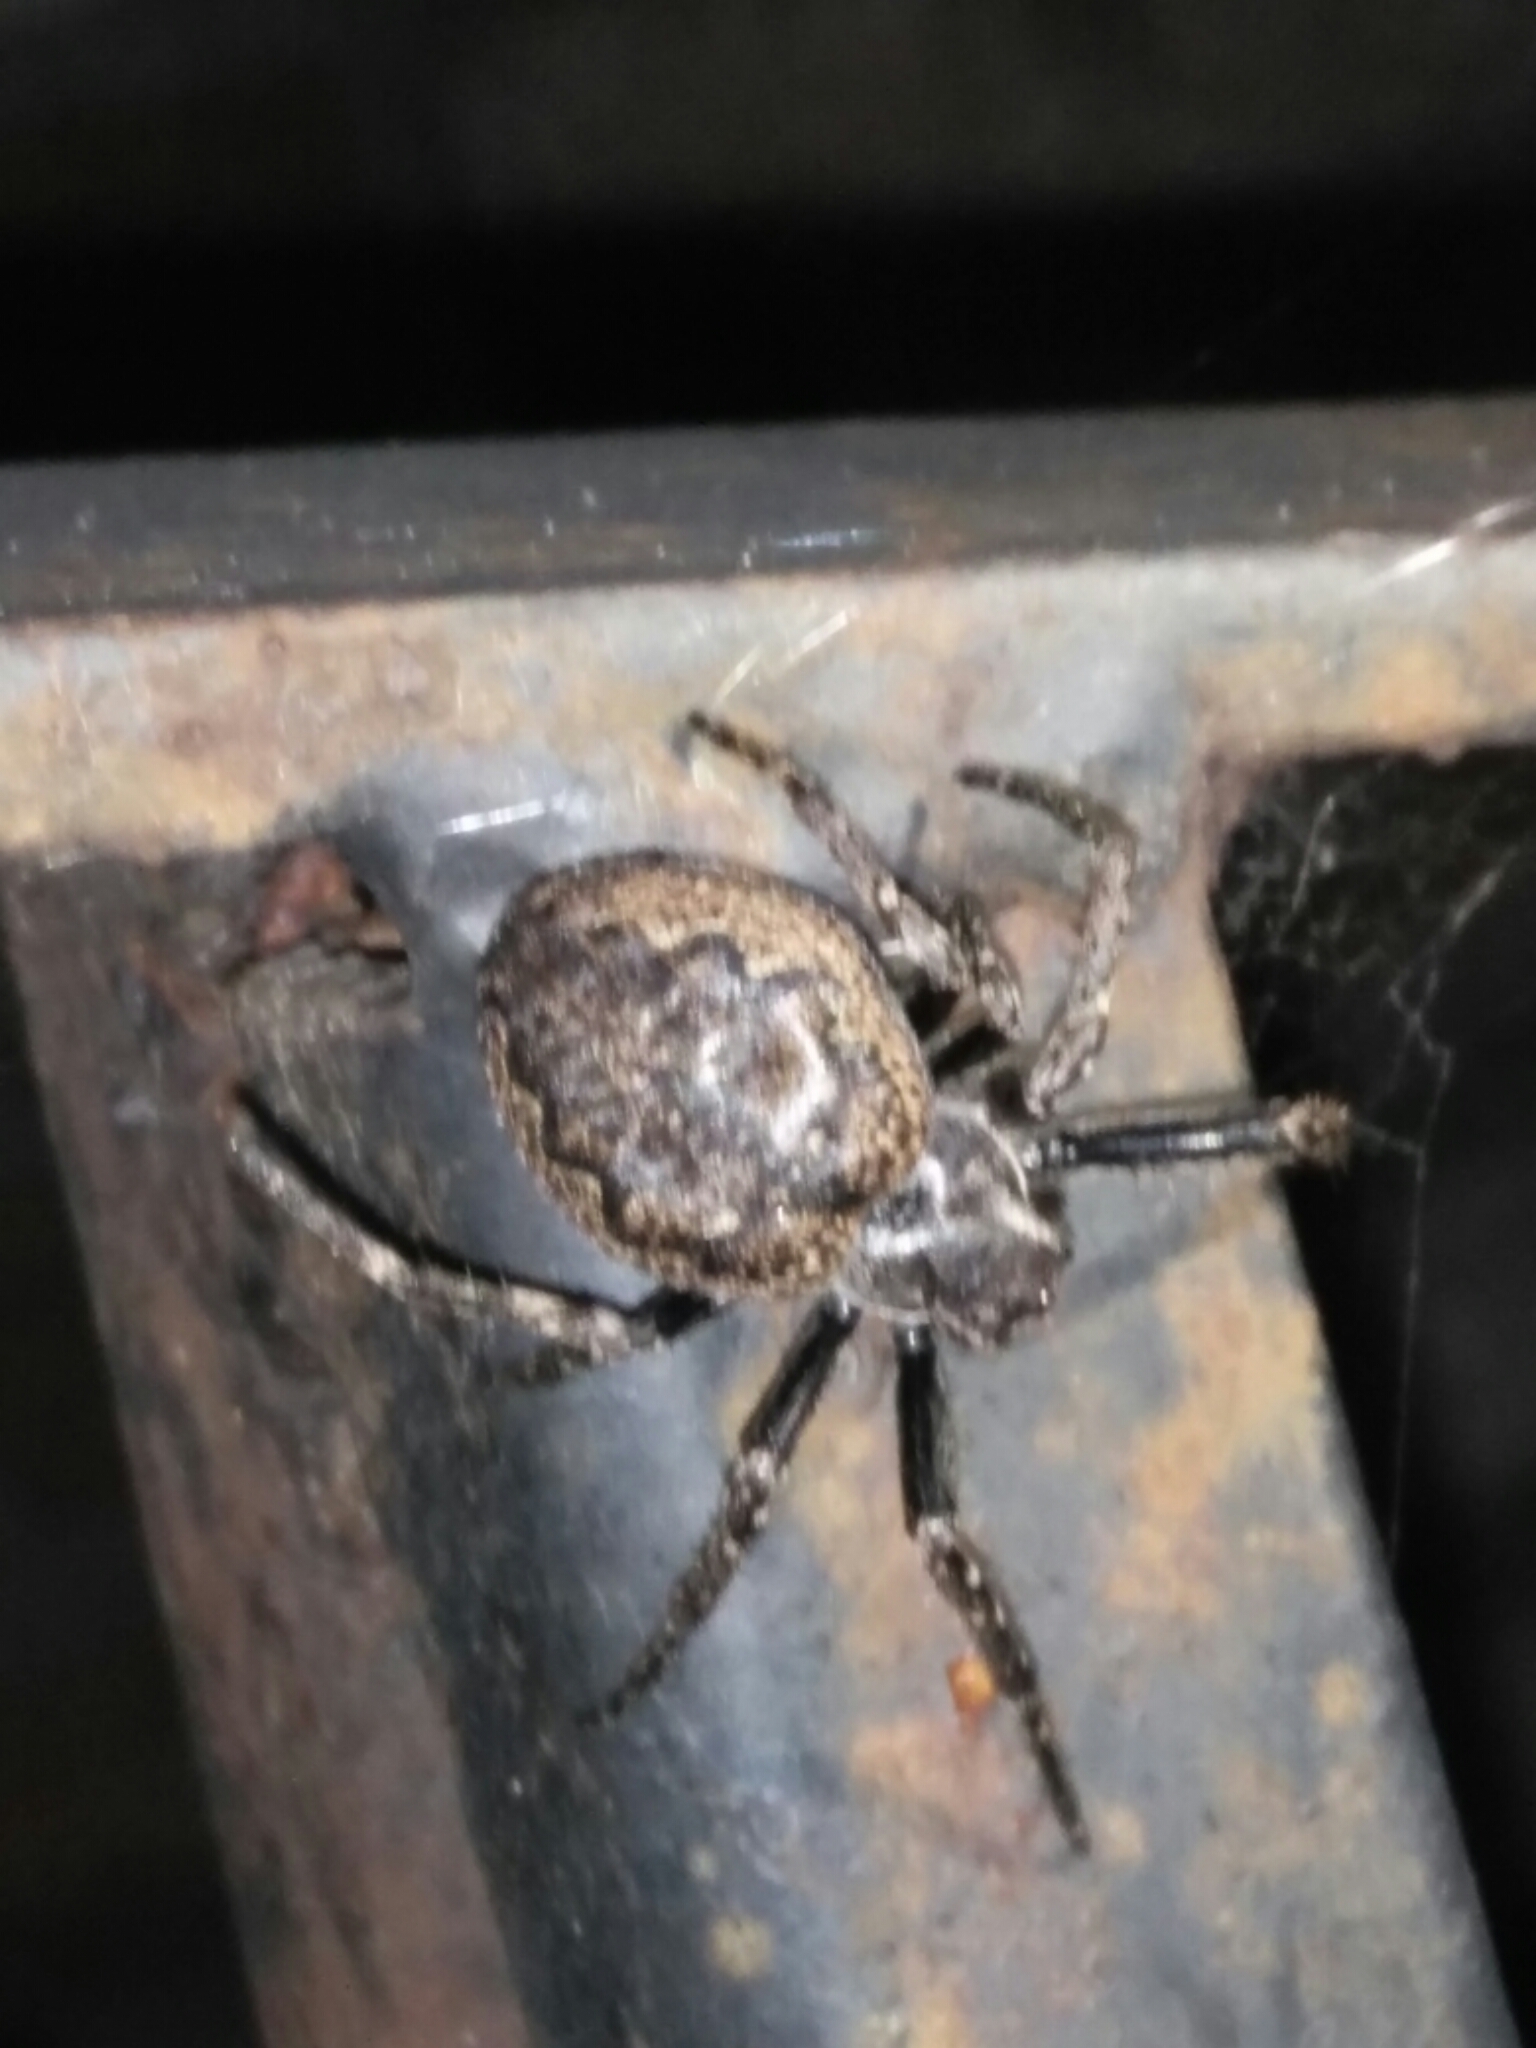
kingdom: Animalia
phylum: Arthropoda
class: Arachnida
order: Araneae
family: Araneidae
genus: Nuctenea
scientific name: Nuctenea umbratica
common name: Toad spider
